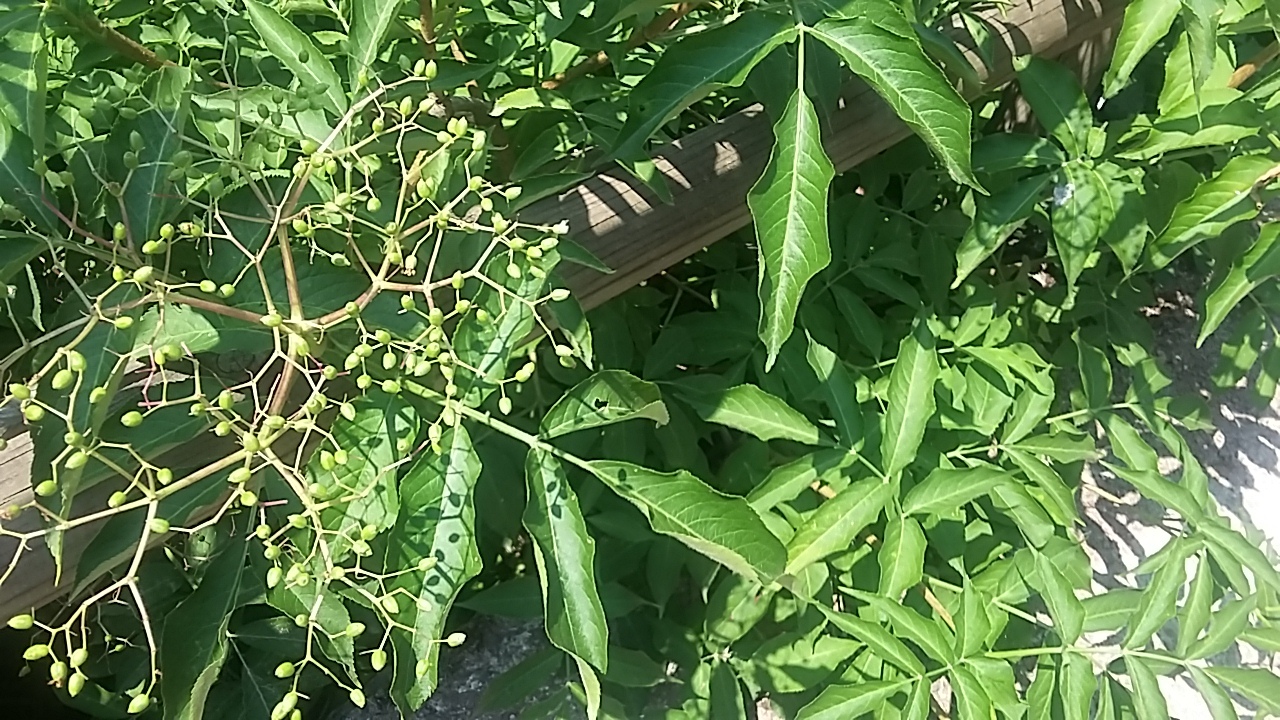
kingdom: Plantae
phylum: Tracheophyta
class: Magnoliopsida
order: Dipsacales
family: Viburnaceae
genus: Sambucus
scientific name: Sambucus nigra
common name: Elder
